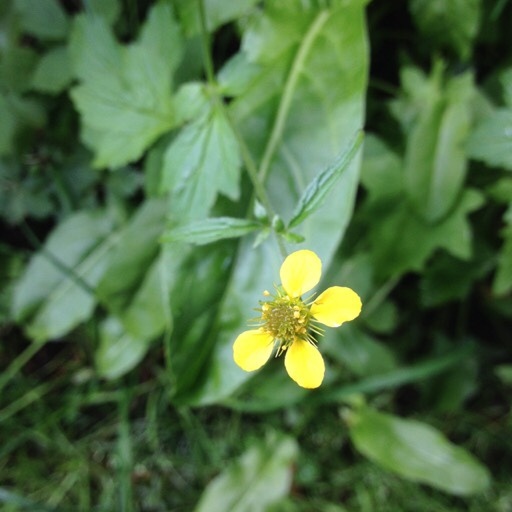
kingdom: Plantae
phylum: Tracheophyta
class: Magnoliopsida
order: Rosales
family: Rosaceae
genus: Geum
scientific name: Geum urbanum
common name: Wood avens
